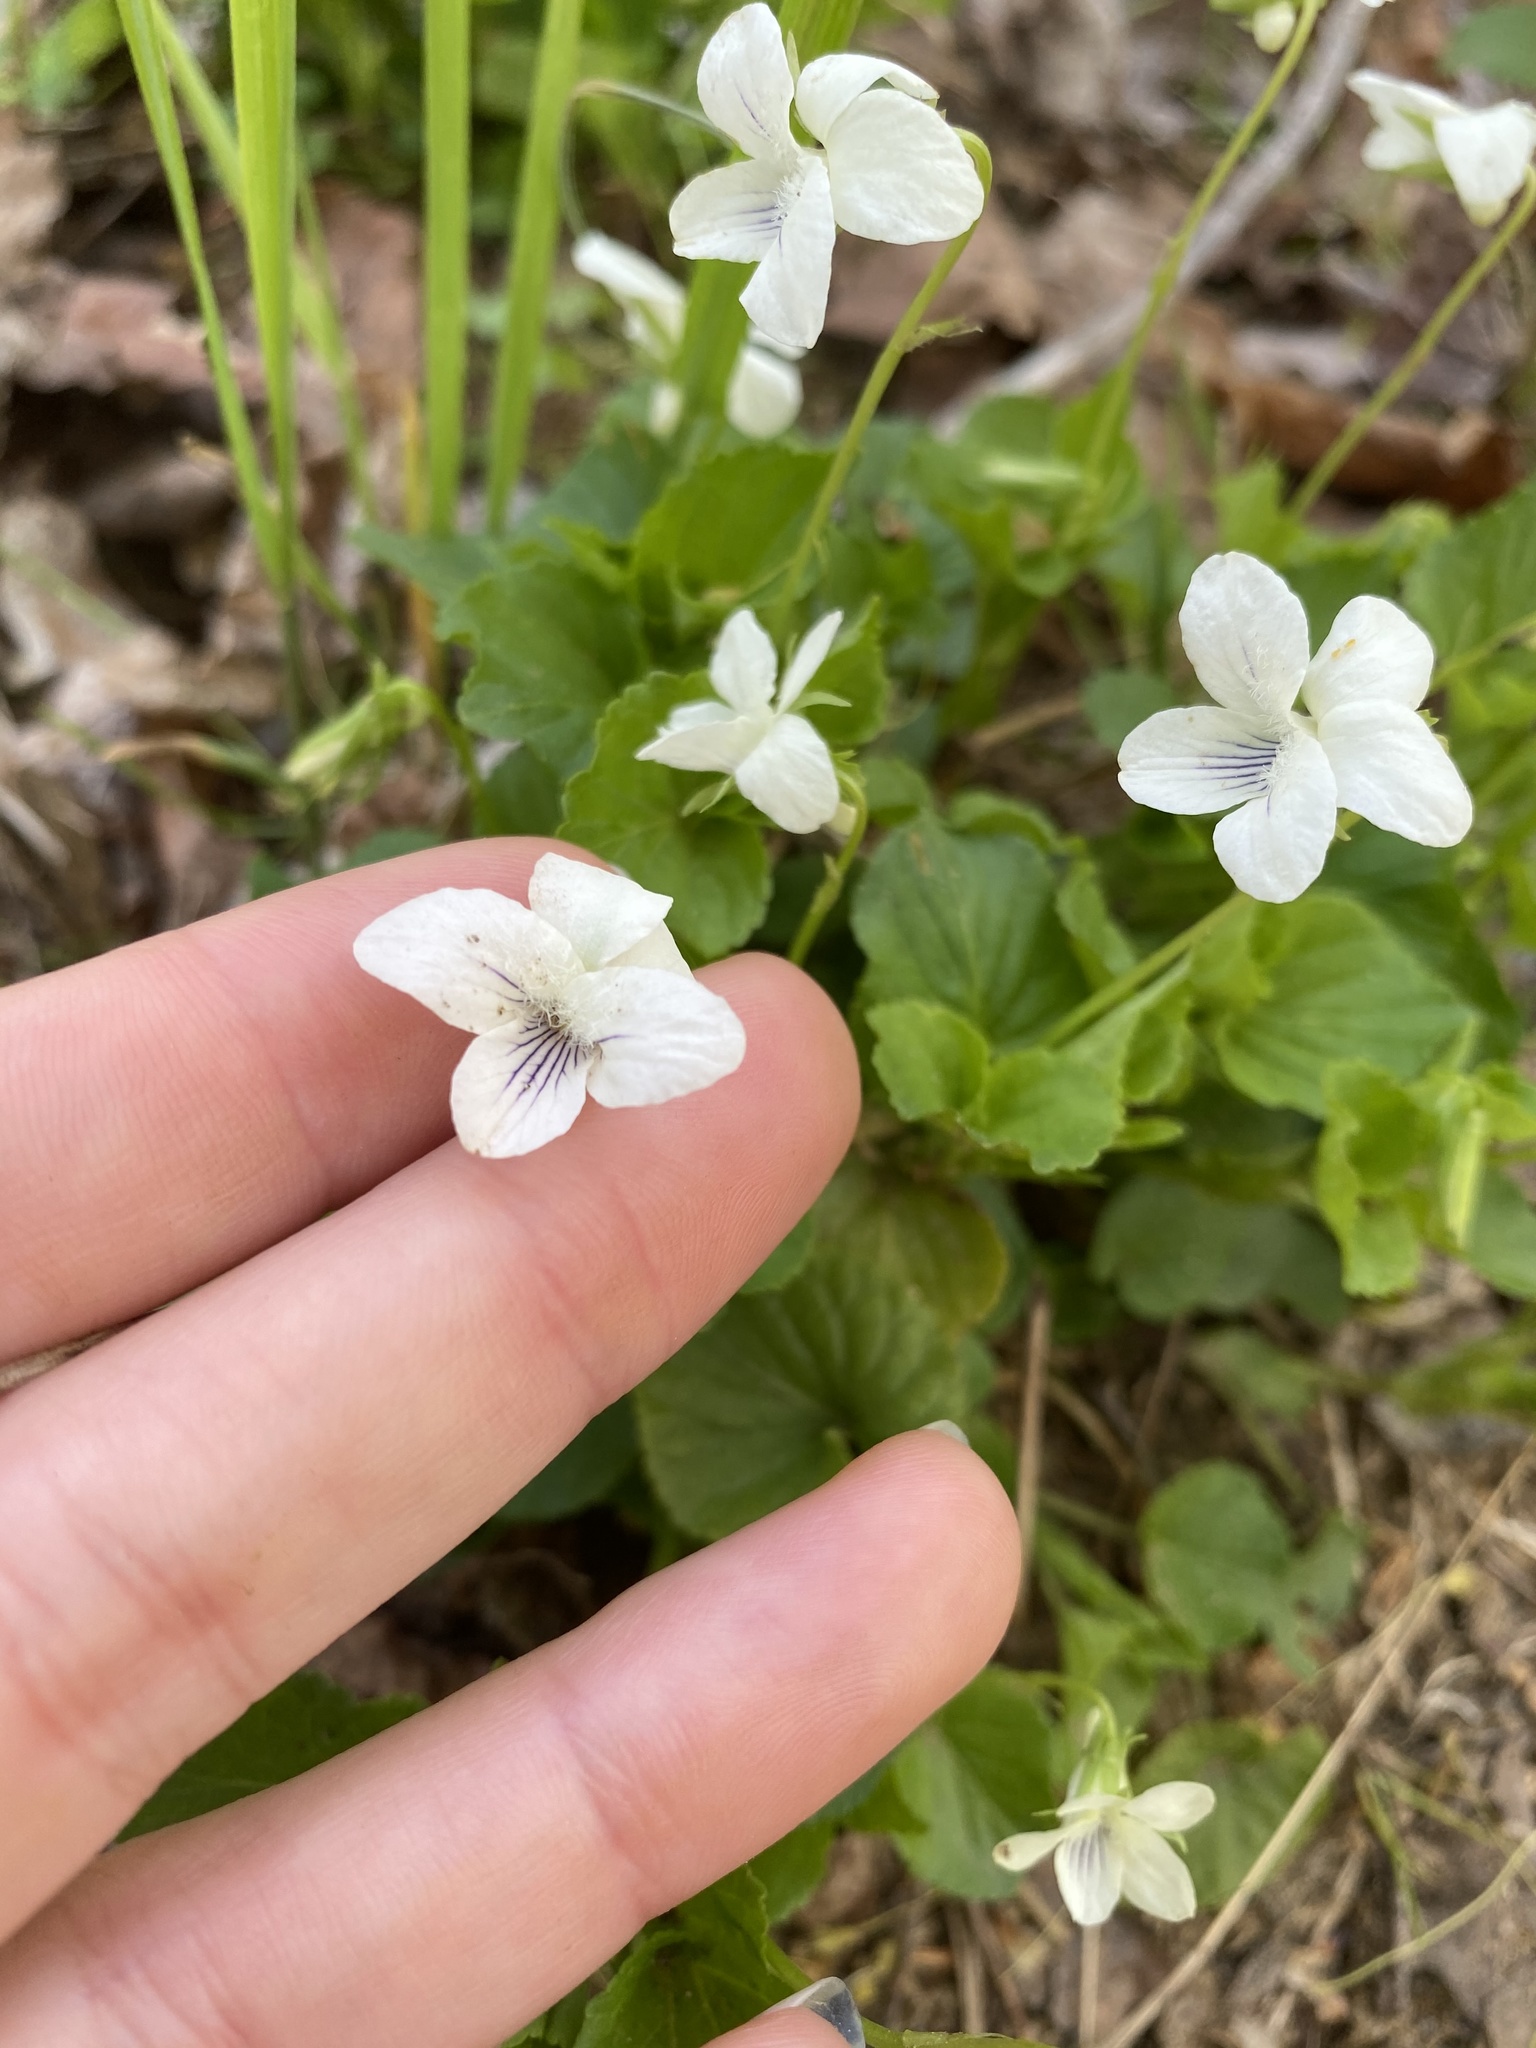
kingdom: Plantae
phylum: Tracheophyta
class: Magnoliopsida
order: Malpighiales
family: Violaceae
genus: Viola
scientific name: Viola striata
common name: Cream violet
